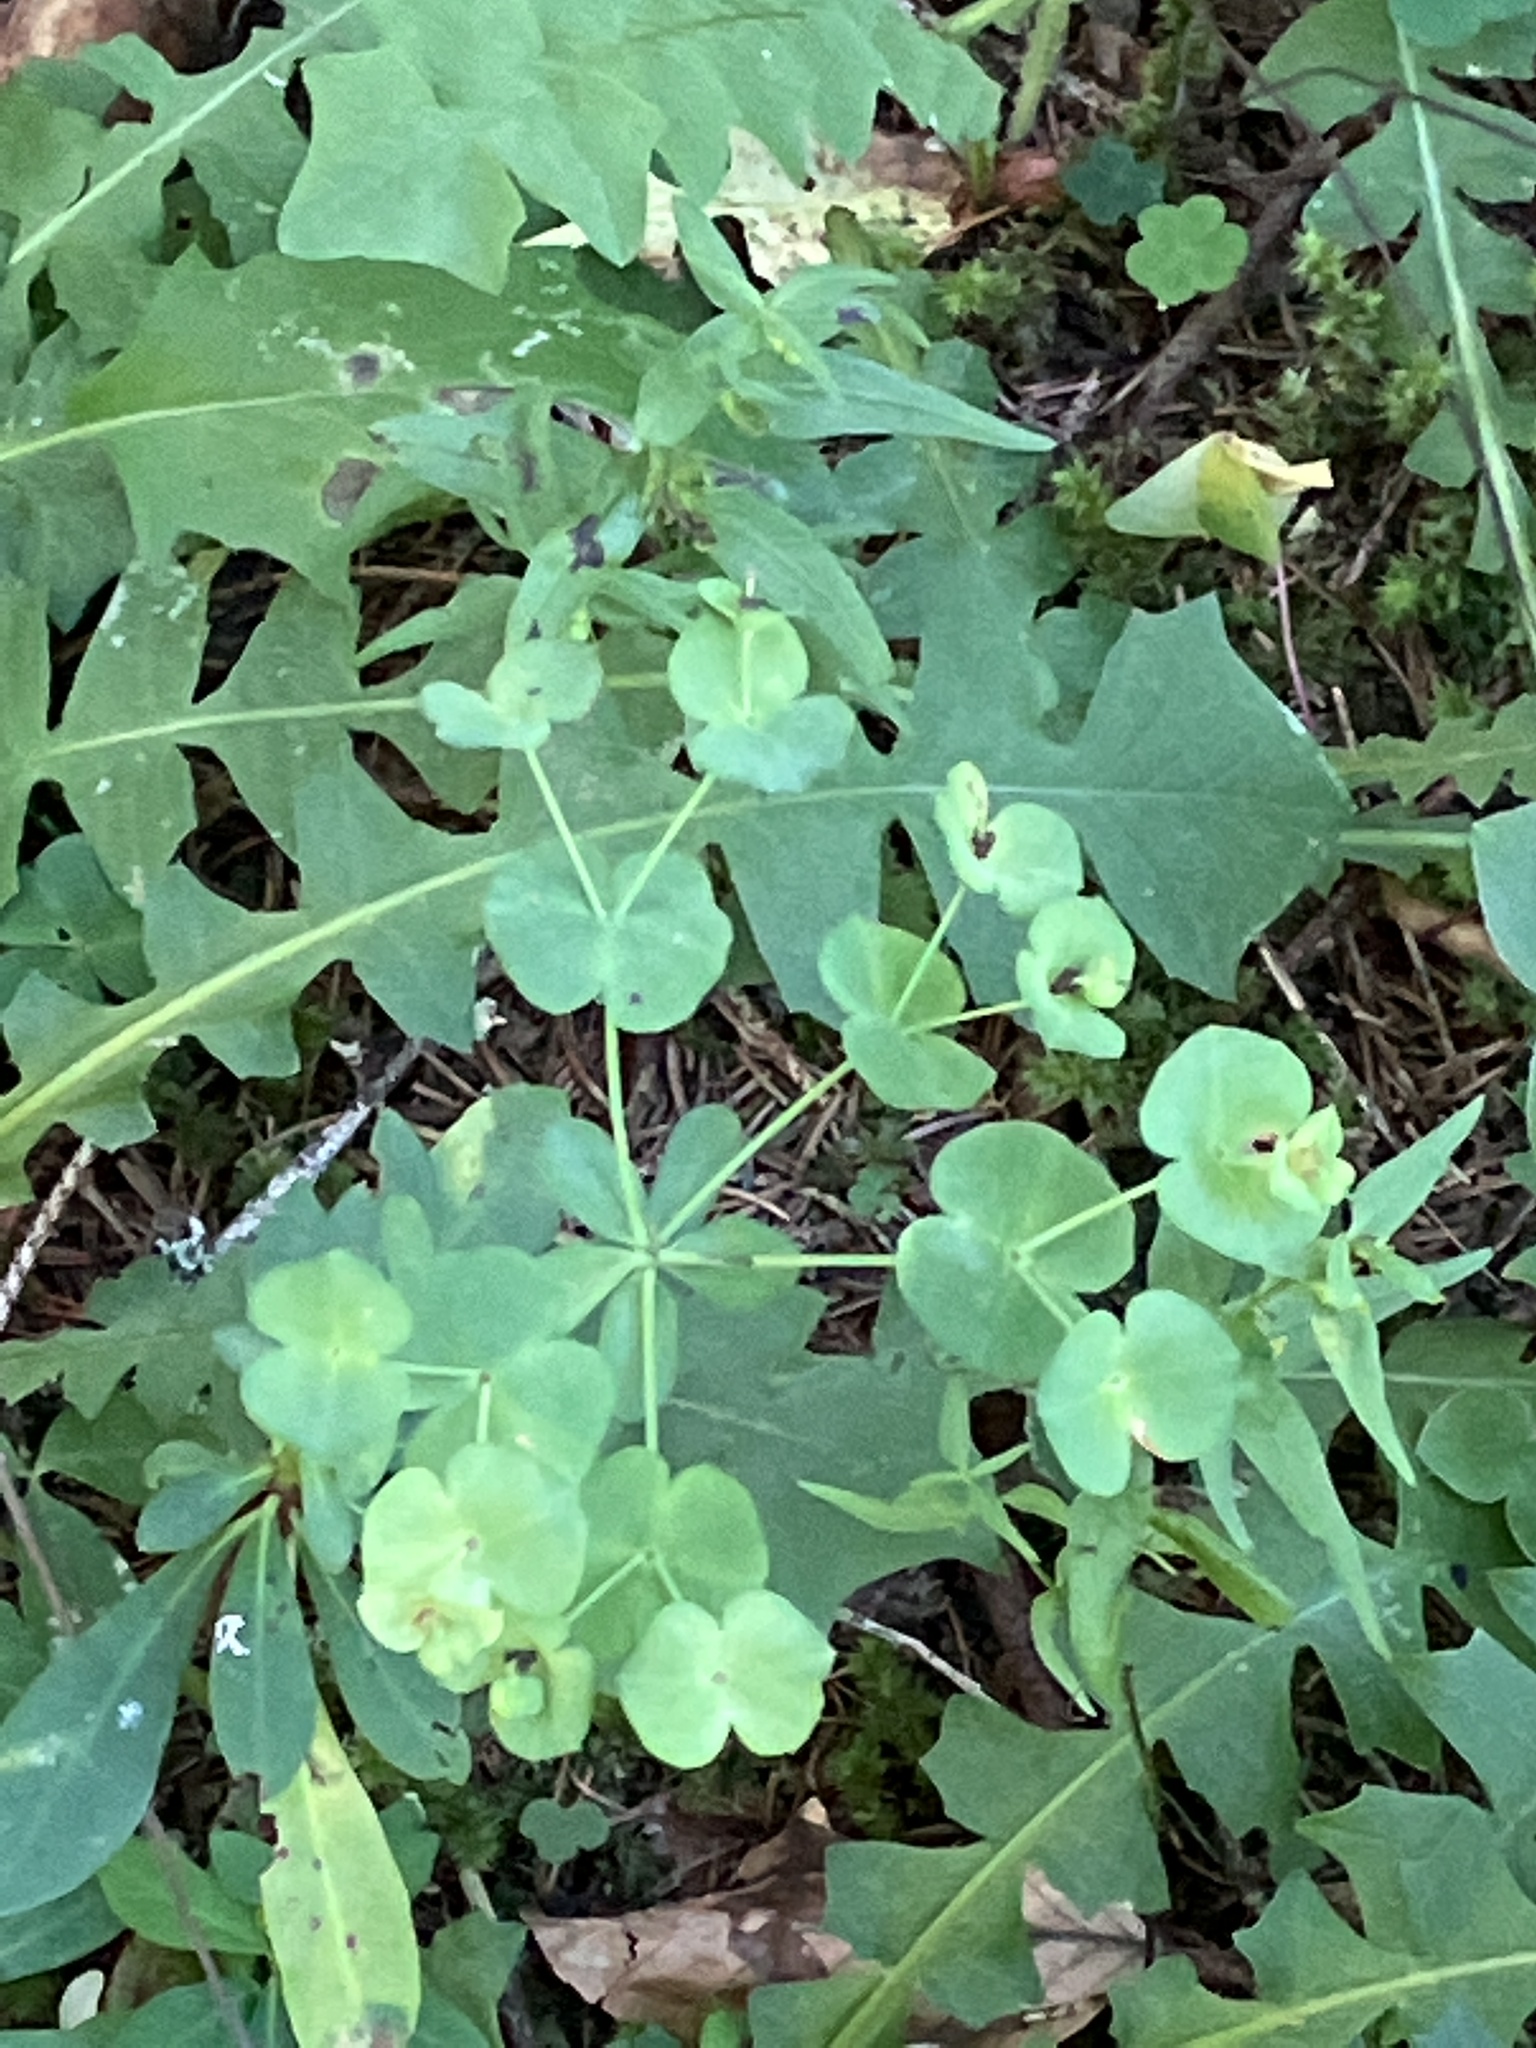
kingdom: Plantae
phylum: Tracheophyta
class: Magnoliopsida
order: Malpighiales
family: Euphorbiaceae
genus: Euphorbia
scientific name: Euphorbia amygdaloides
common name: Wood spurge
